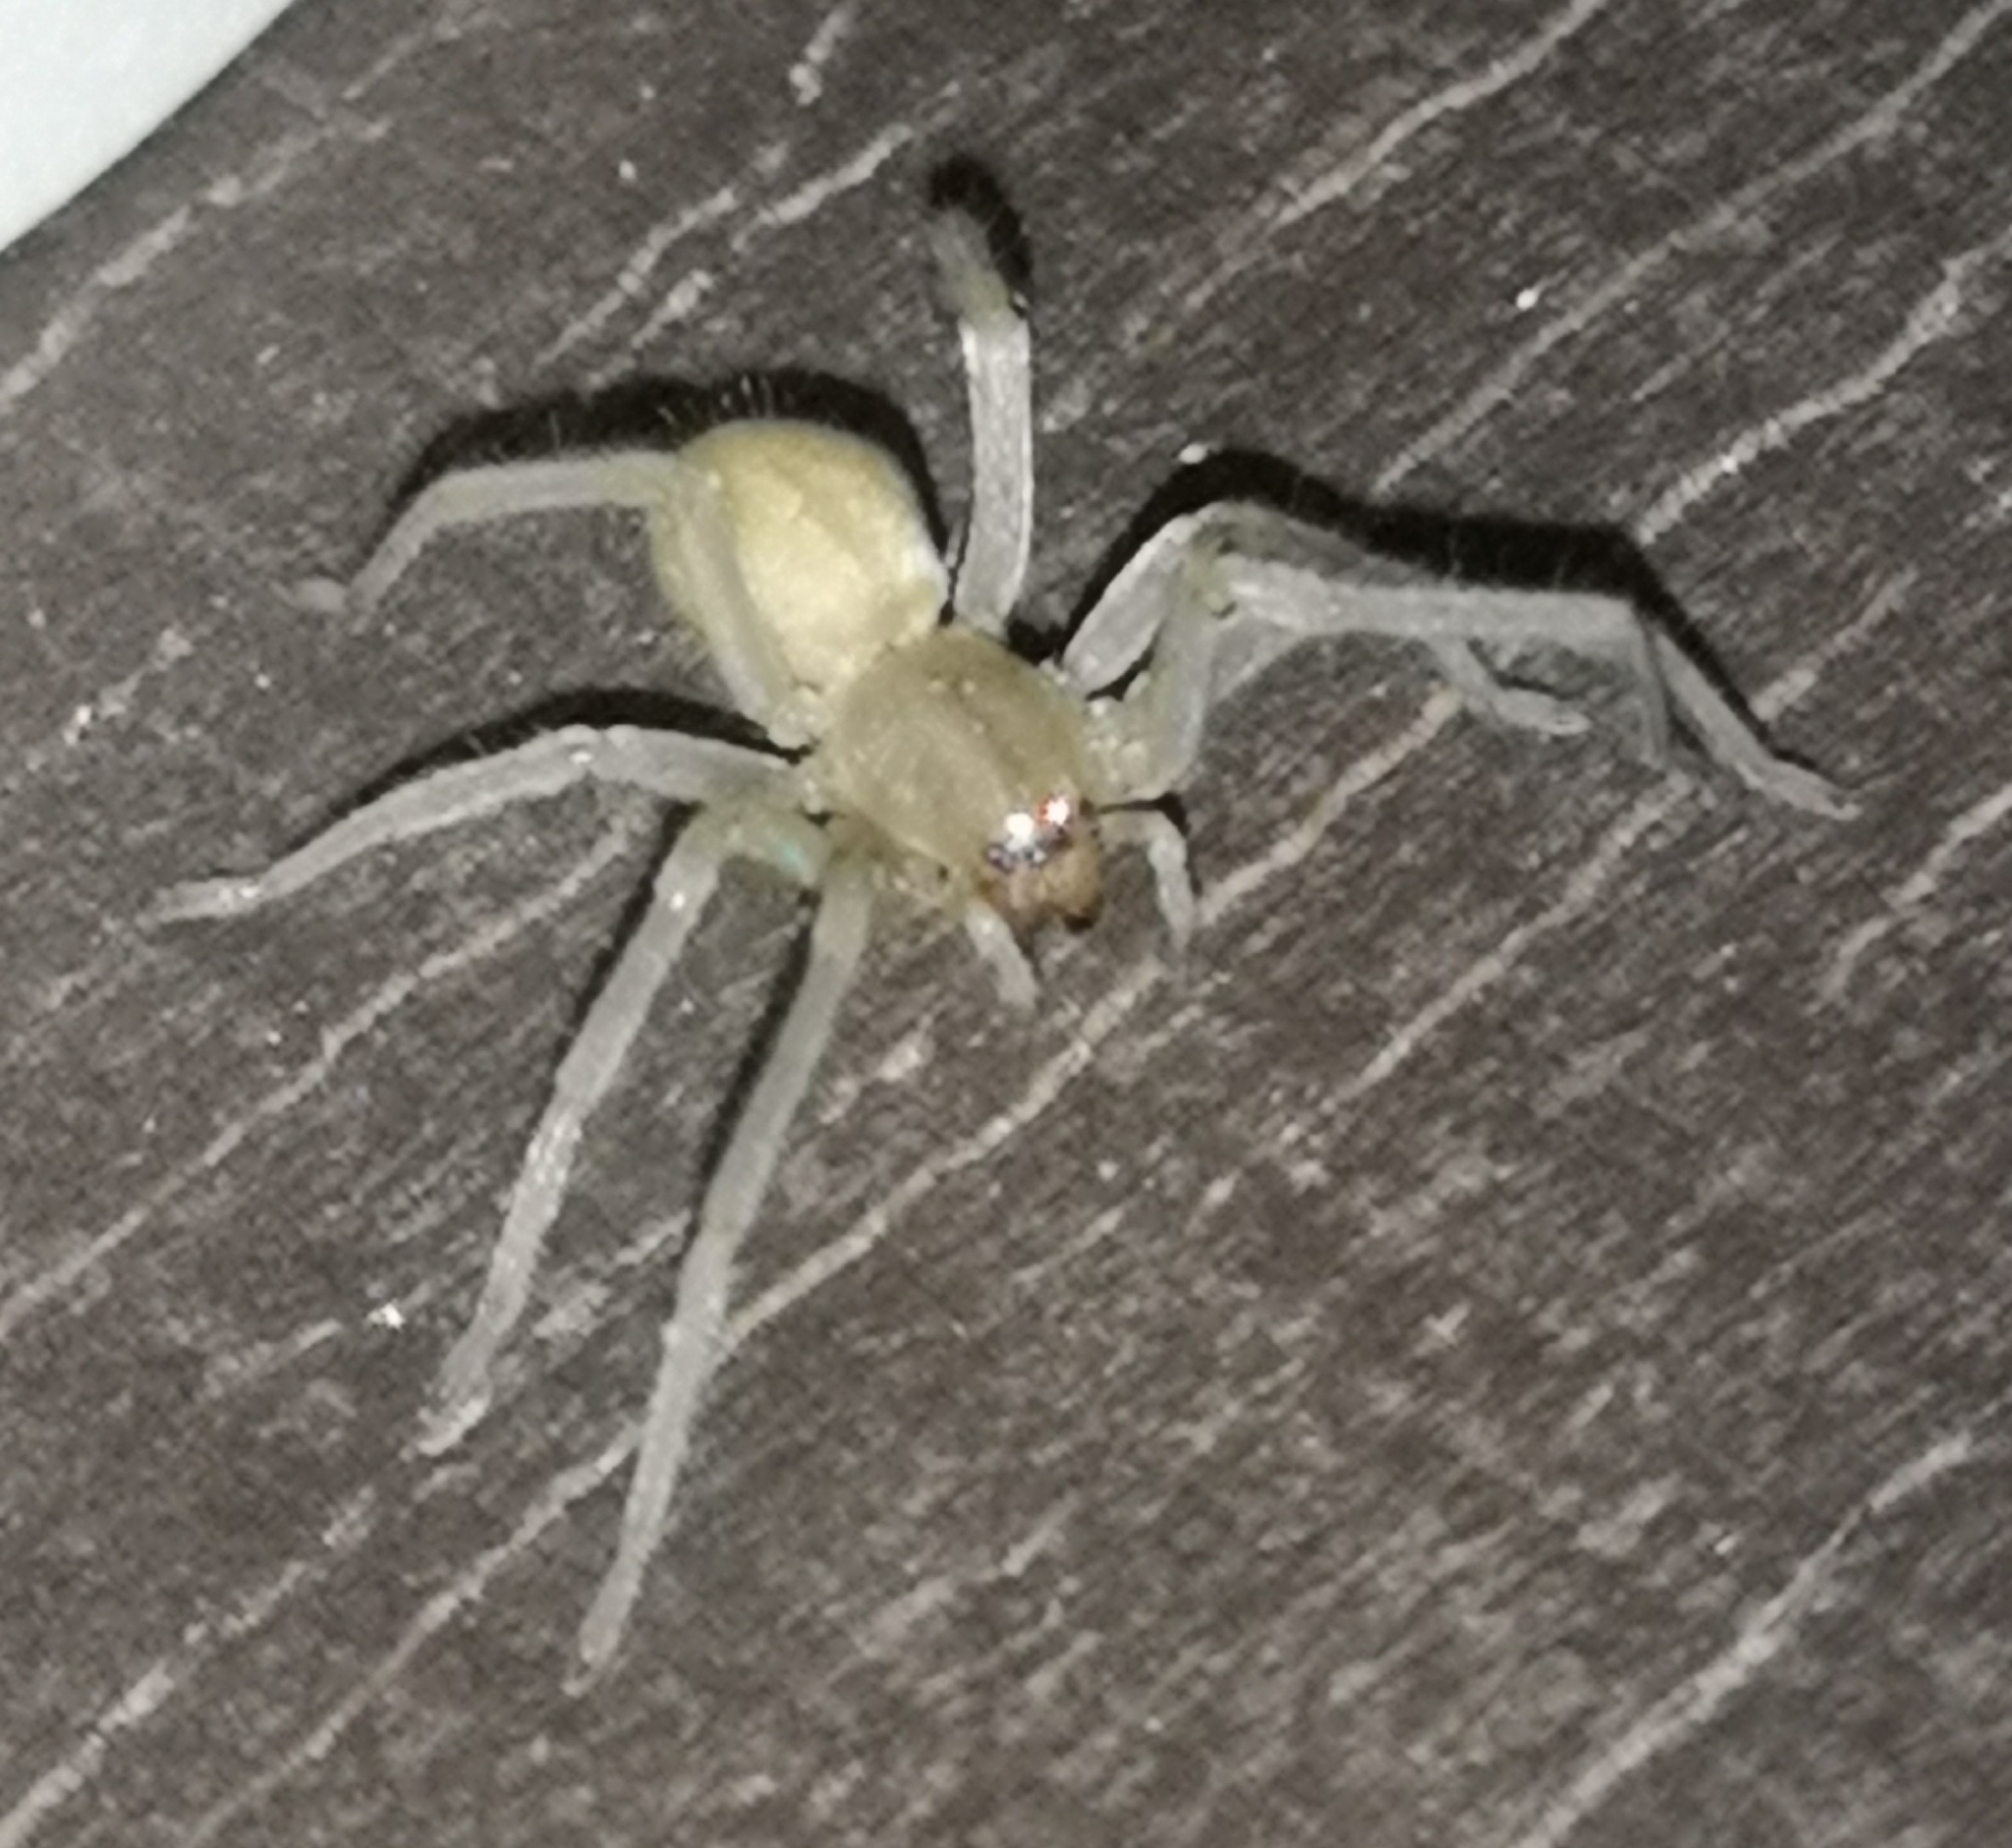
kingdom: Animalia
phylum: Arthropoda
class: Arachnida
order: Araneae
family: Cheiracanthiidae
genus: Cheiracanthium
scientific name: Cheiracanthium mildei
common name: Northern yellow sac spider
